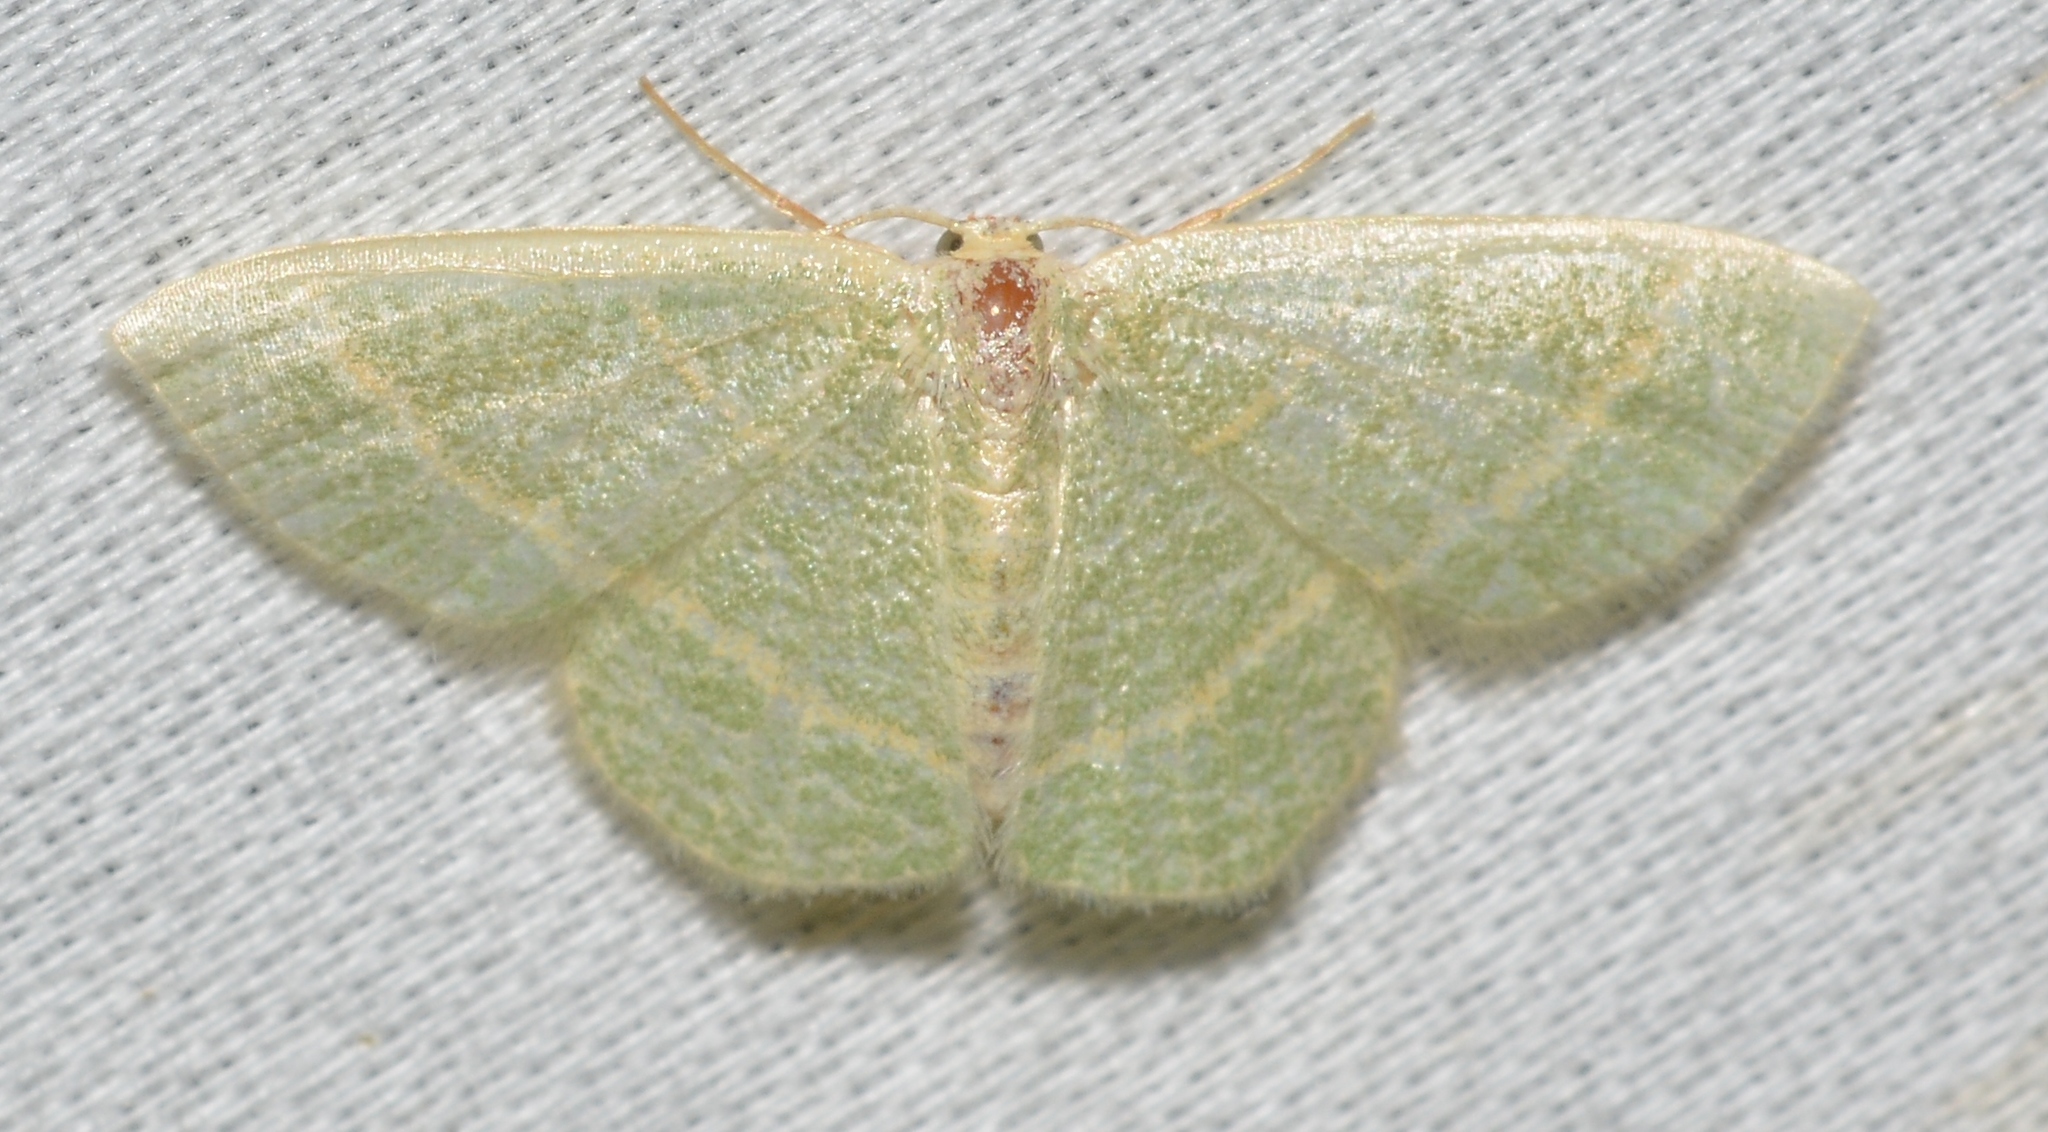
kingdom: Animalia
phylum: Arthropoda
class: Insecta
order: Lepidoptera
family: Geometridae
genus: Chlorochlamys
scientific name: Chlorochlamys chloroleucaria
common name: Blackberry looper
